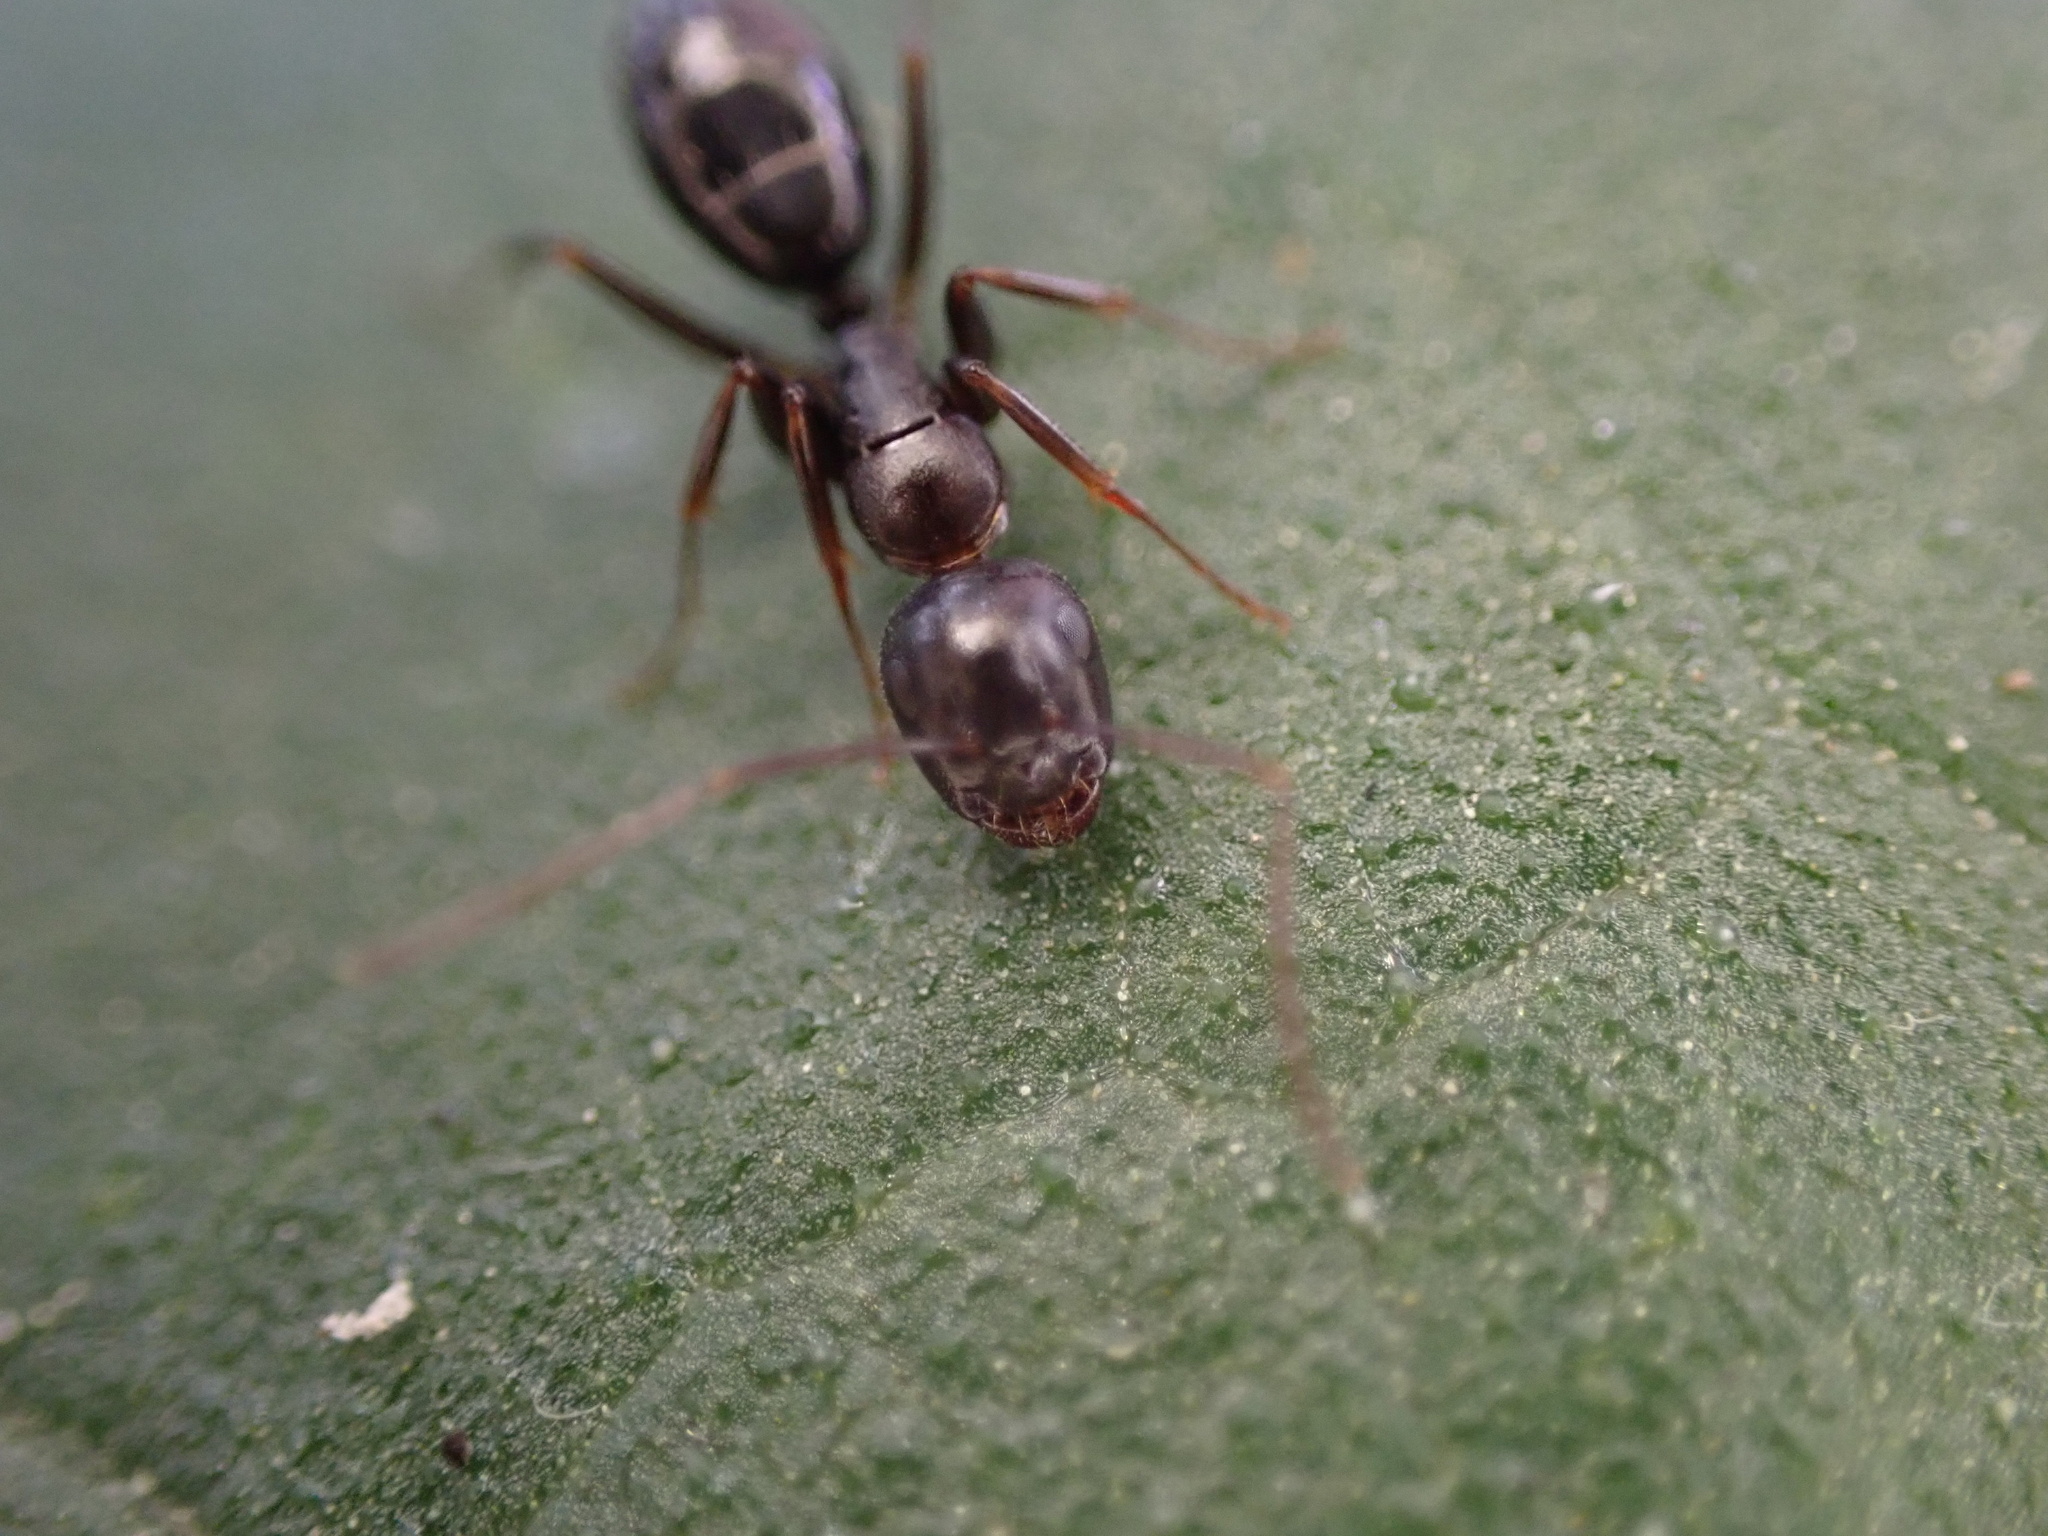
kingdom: Animalia
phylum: Arthropoda
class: Insecta
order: Hymenoptera
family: Formicidae
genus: Camponotus
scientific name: Camponotus nearcticus
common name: Smaller carpenter ant
